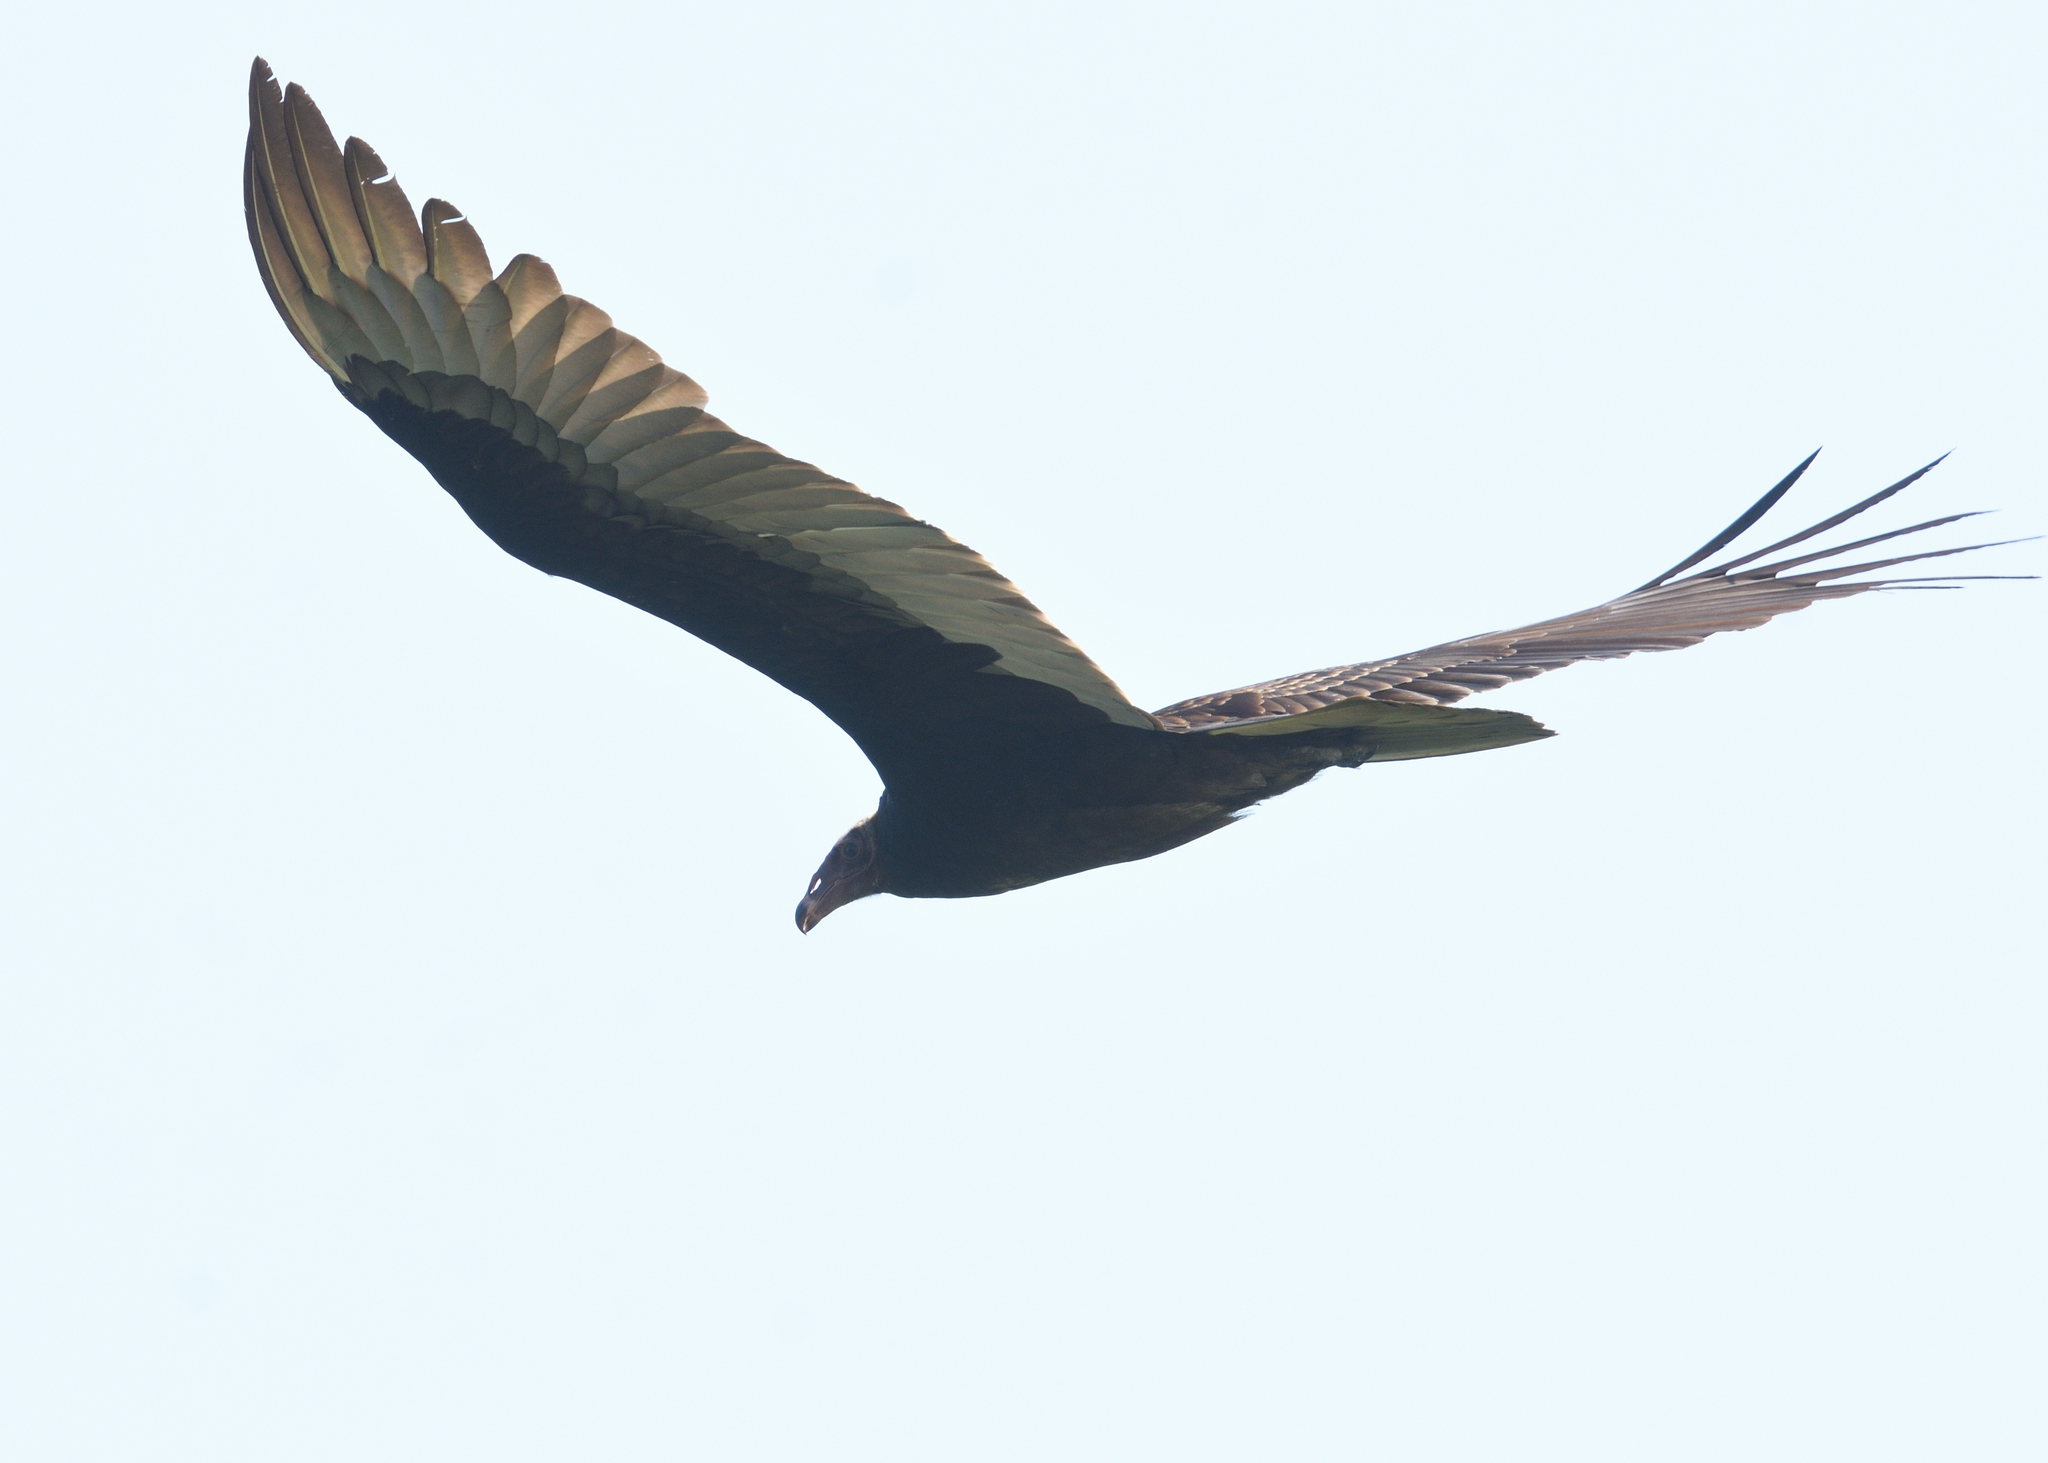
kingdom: Animalia
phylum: Chordata
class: Aves
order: Accipitriformes
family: Cathartidae
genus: Cathartes
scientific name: Cathartes aura
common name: Turkey vulture
